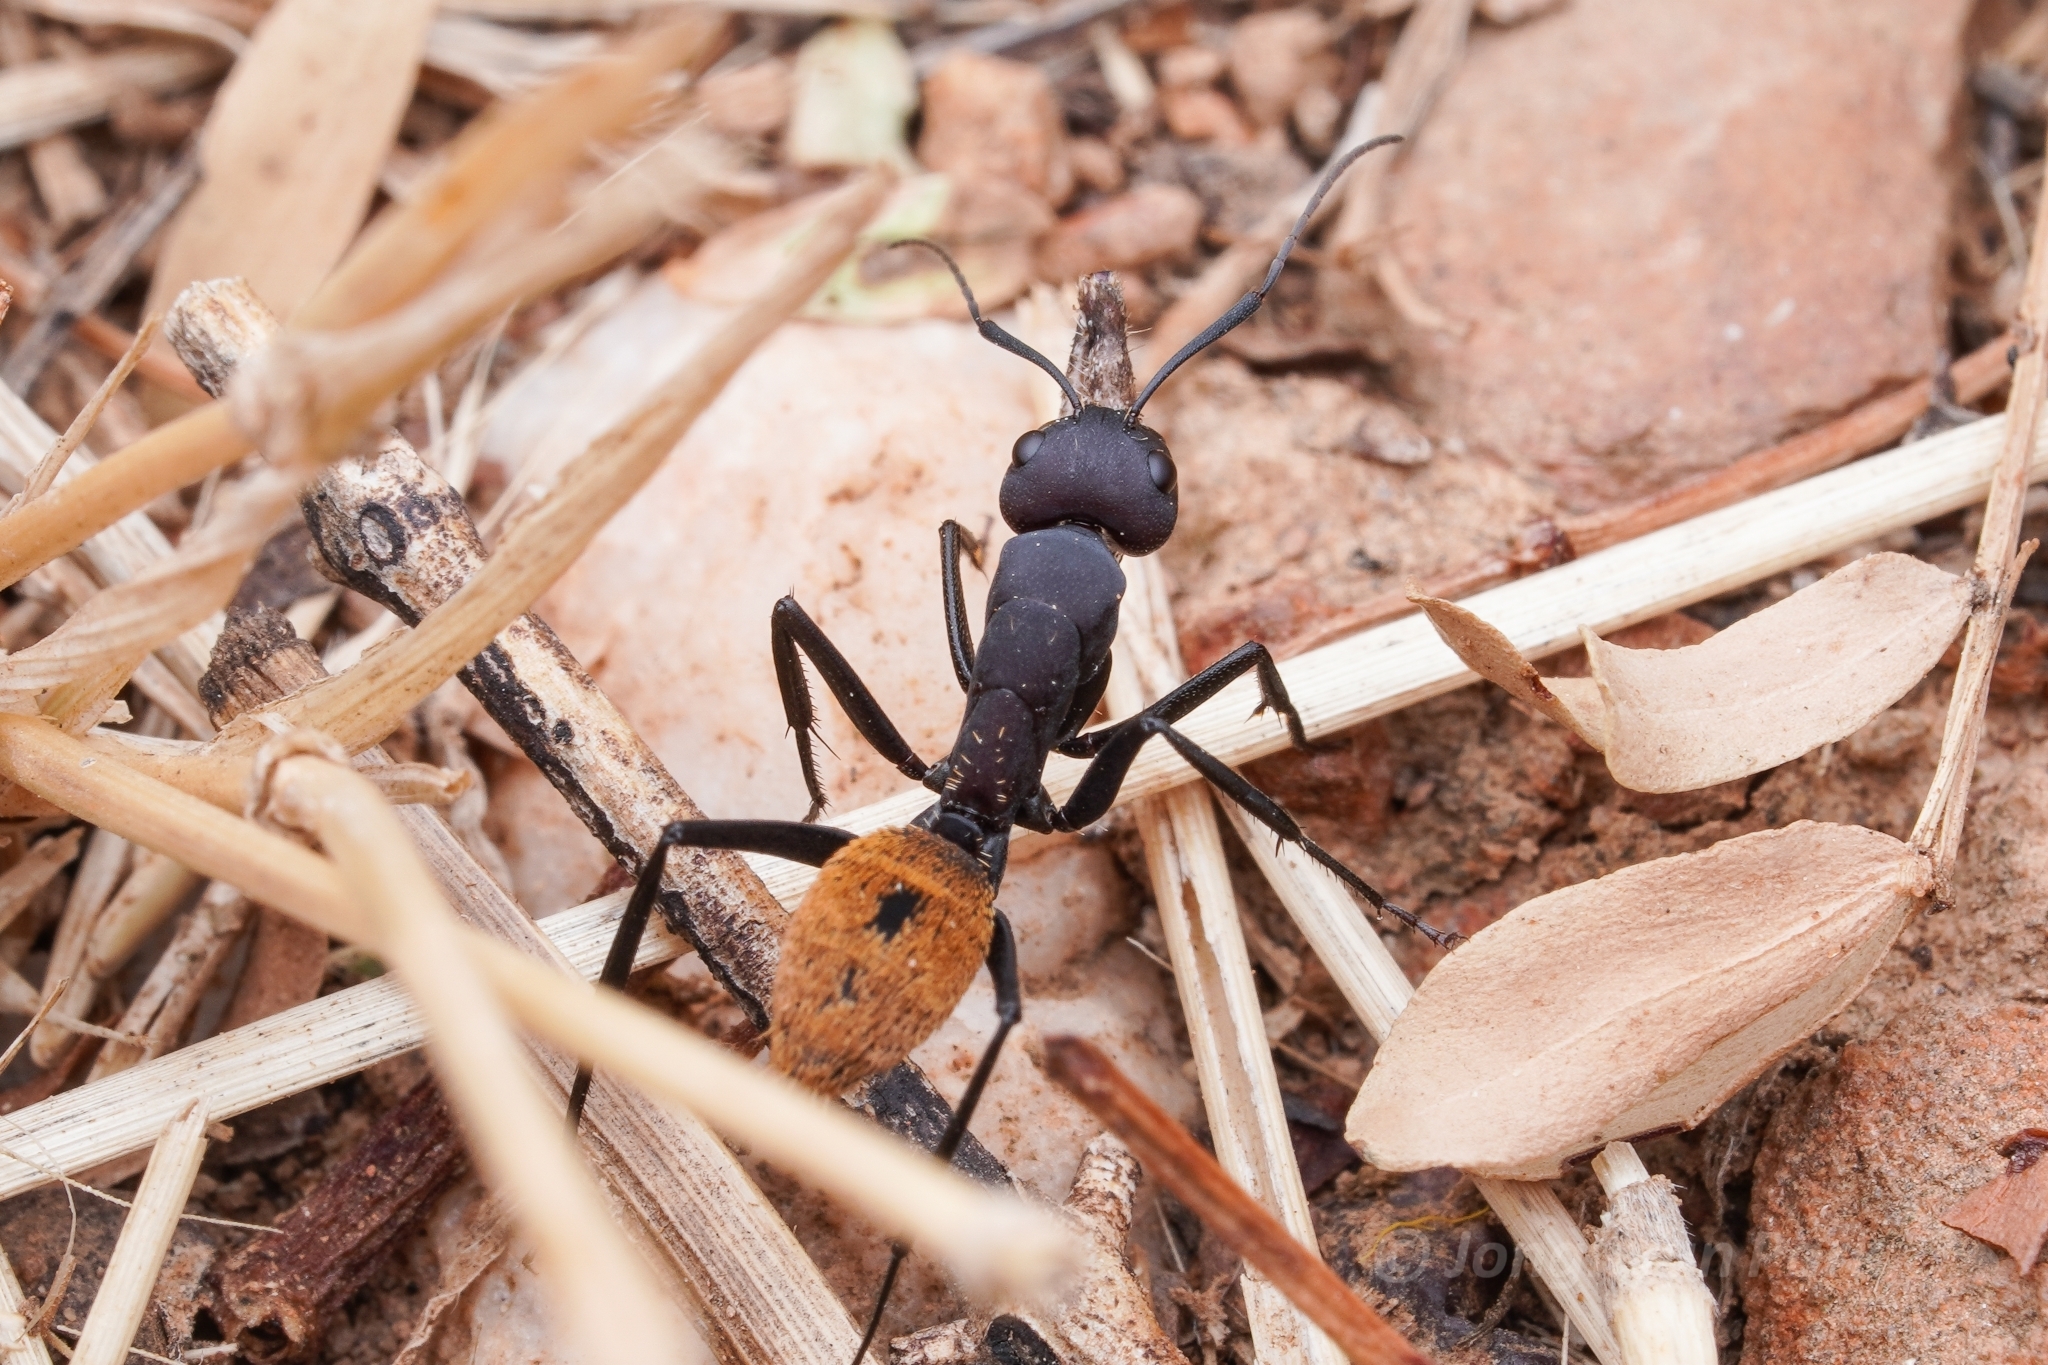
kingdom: Animalia
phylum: Arthropoda
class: Insecta
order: Hymenoptera
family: Formicidae
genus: Camponotus
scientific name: Camponotus fulvopilosus
